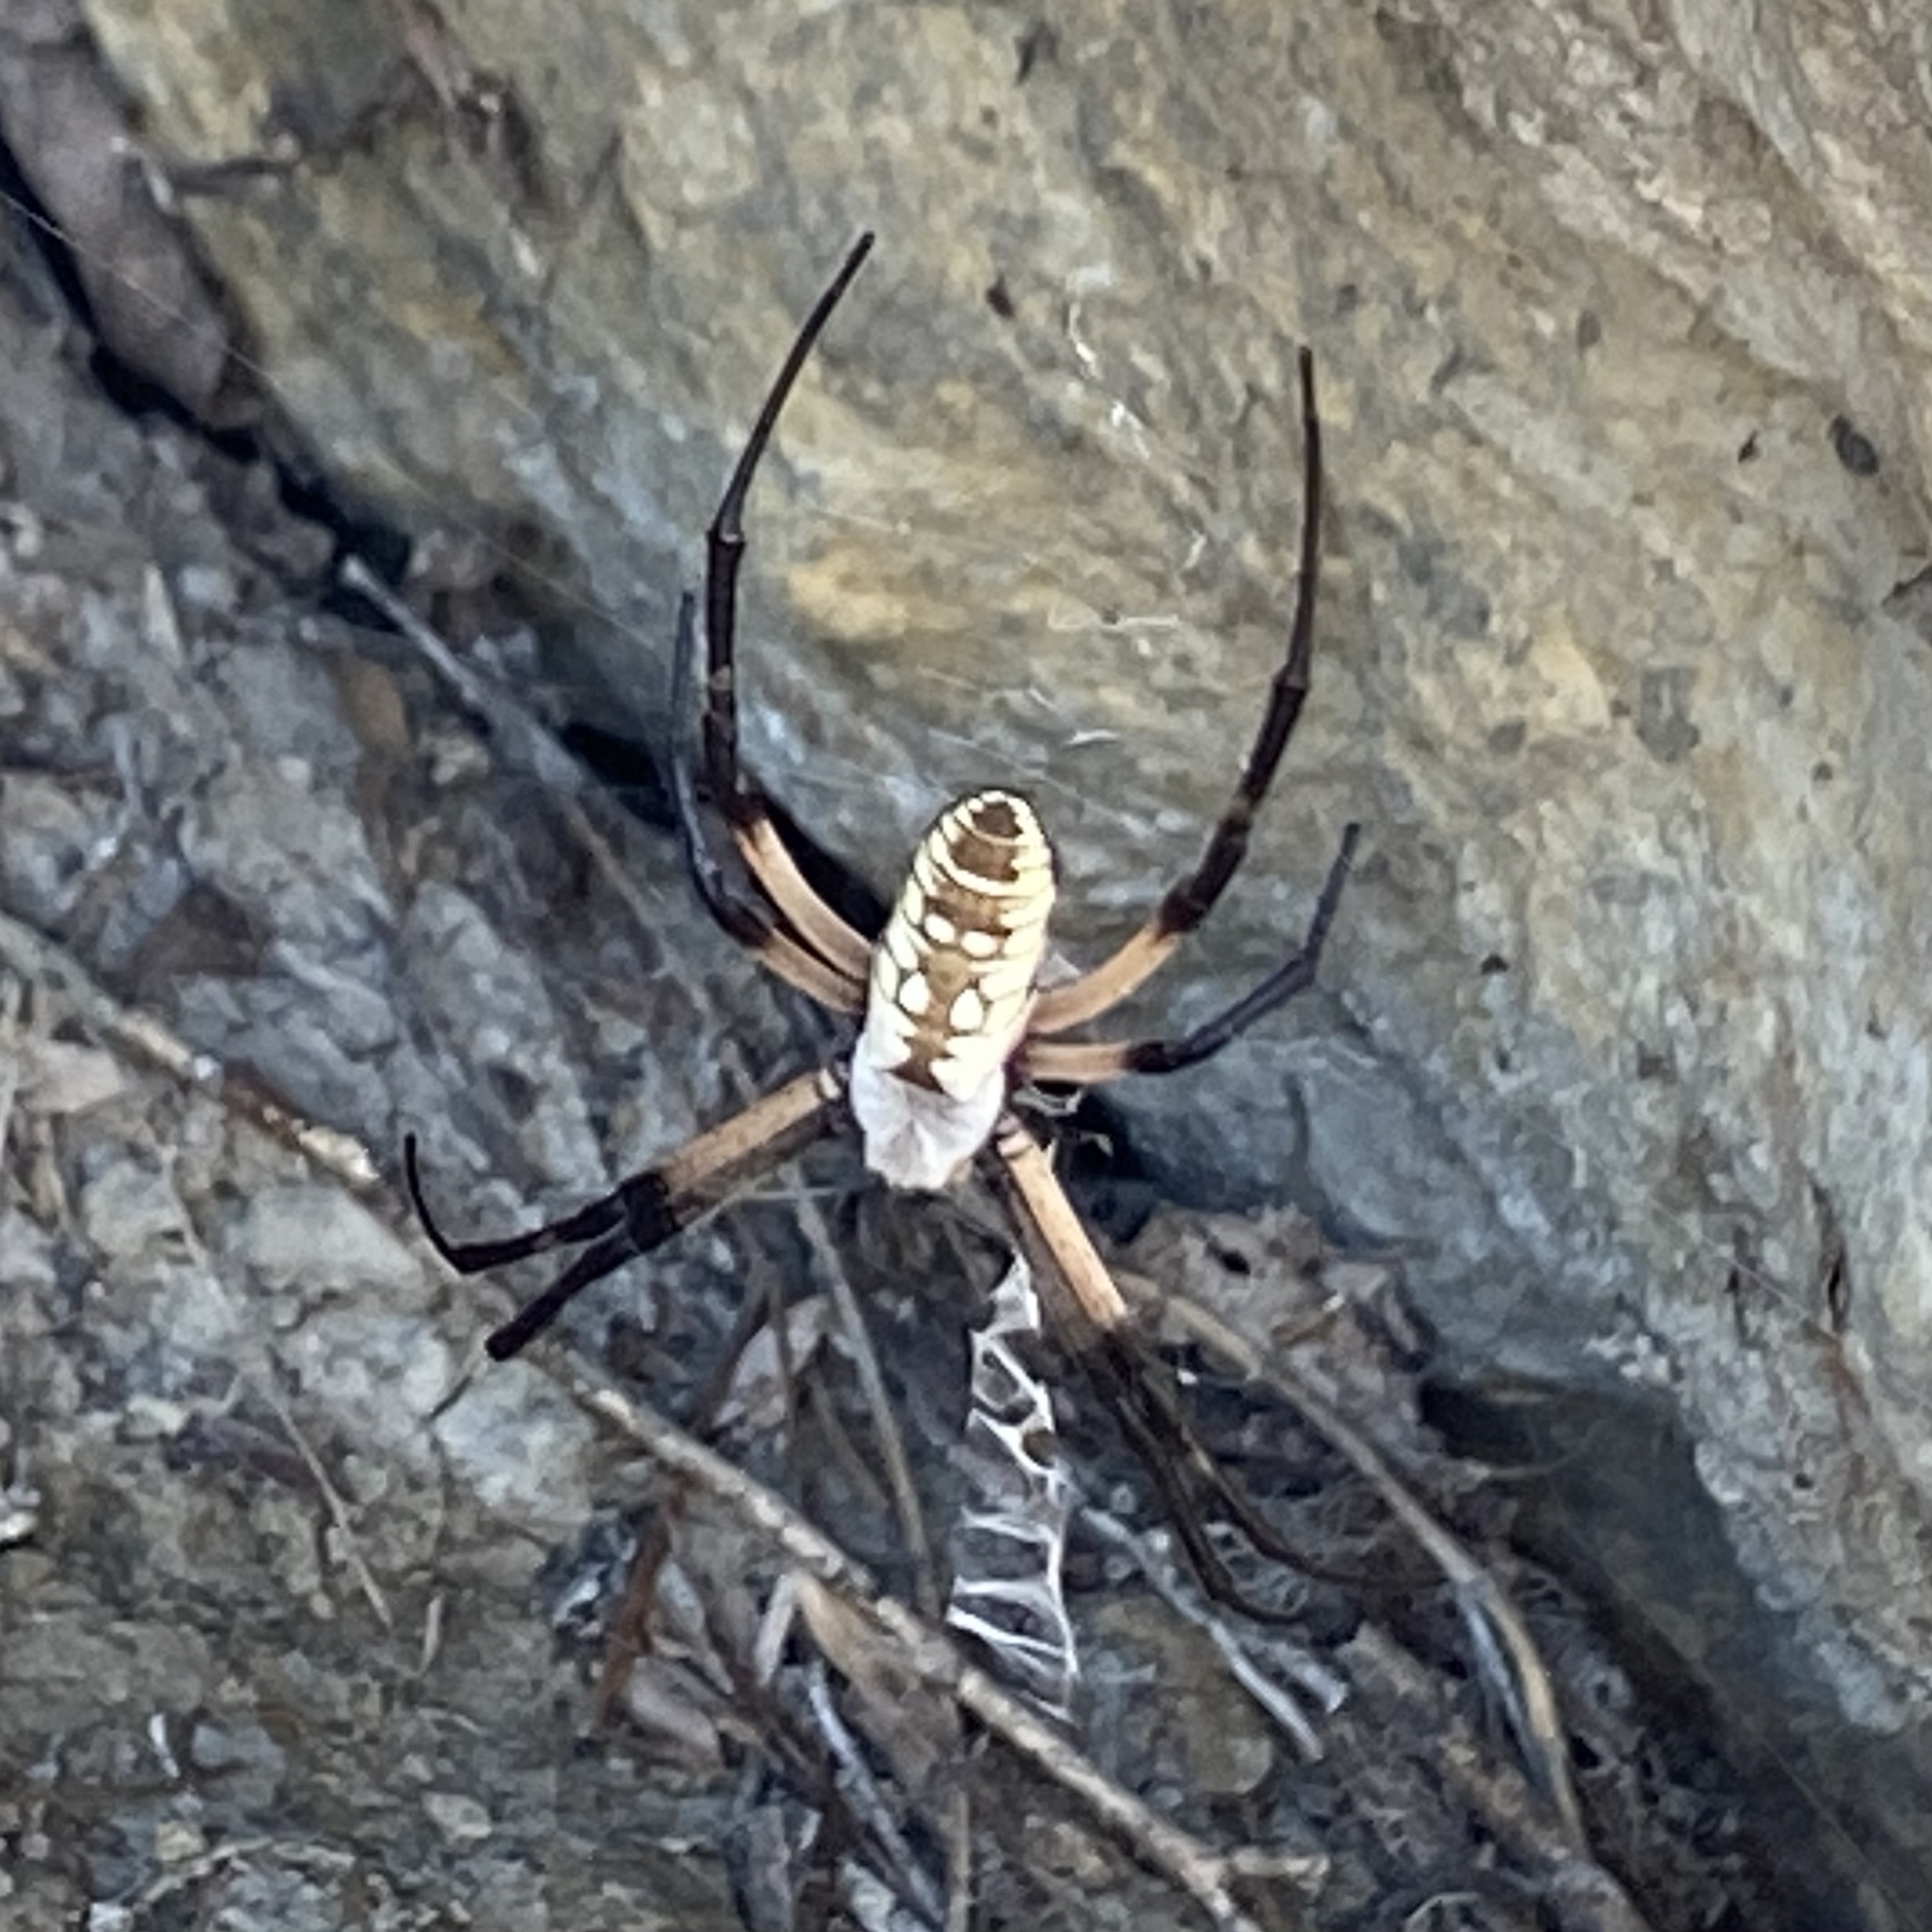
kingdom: Animalia
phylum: Arthropoda
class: Arachnida
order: Araneae
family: Araneidae
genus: Argiope
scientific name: Argiope aurantia
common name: Orb weavers
